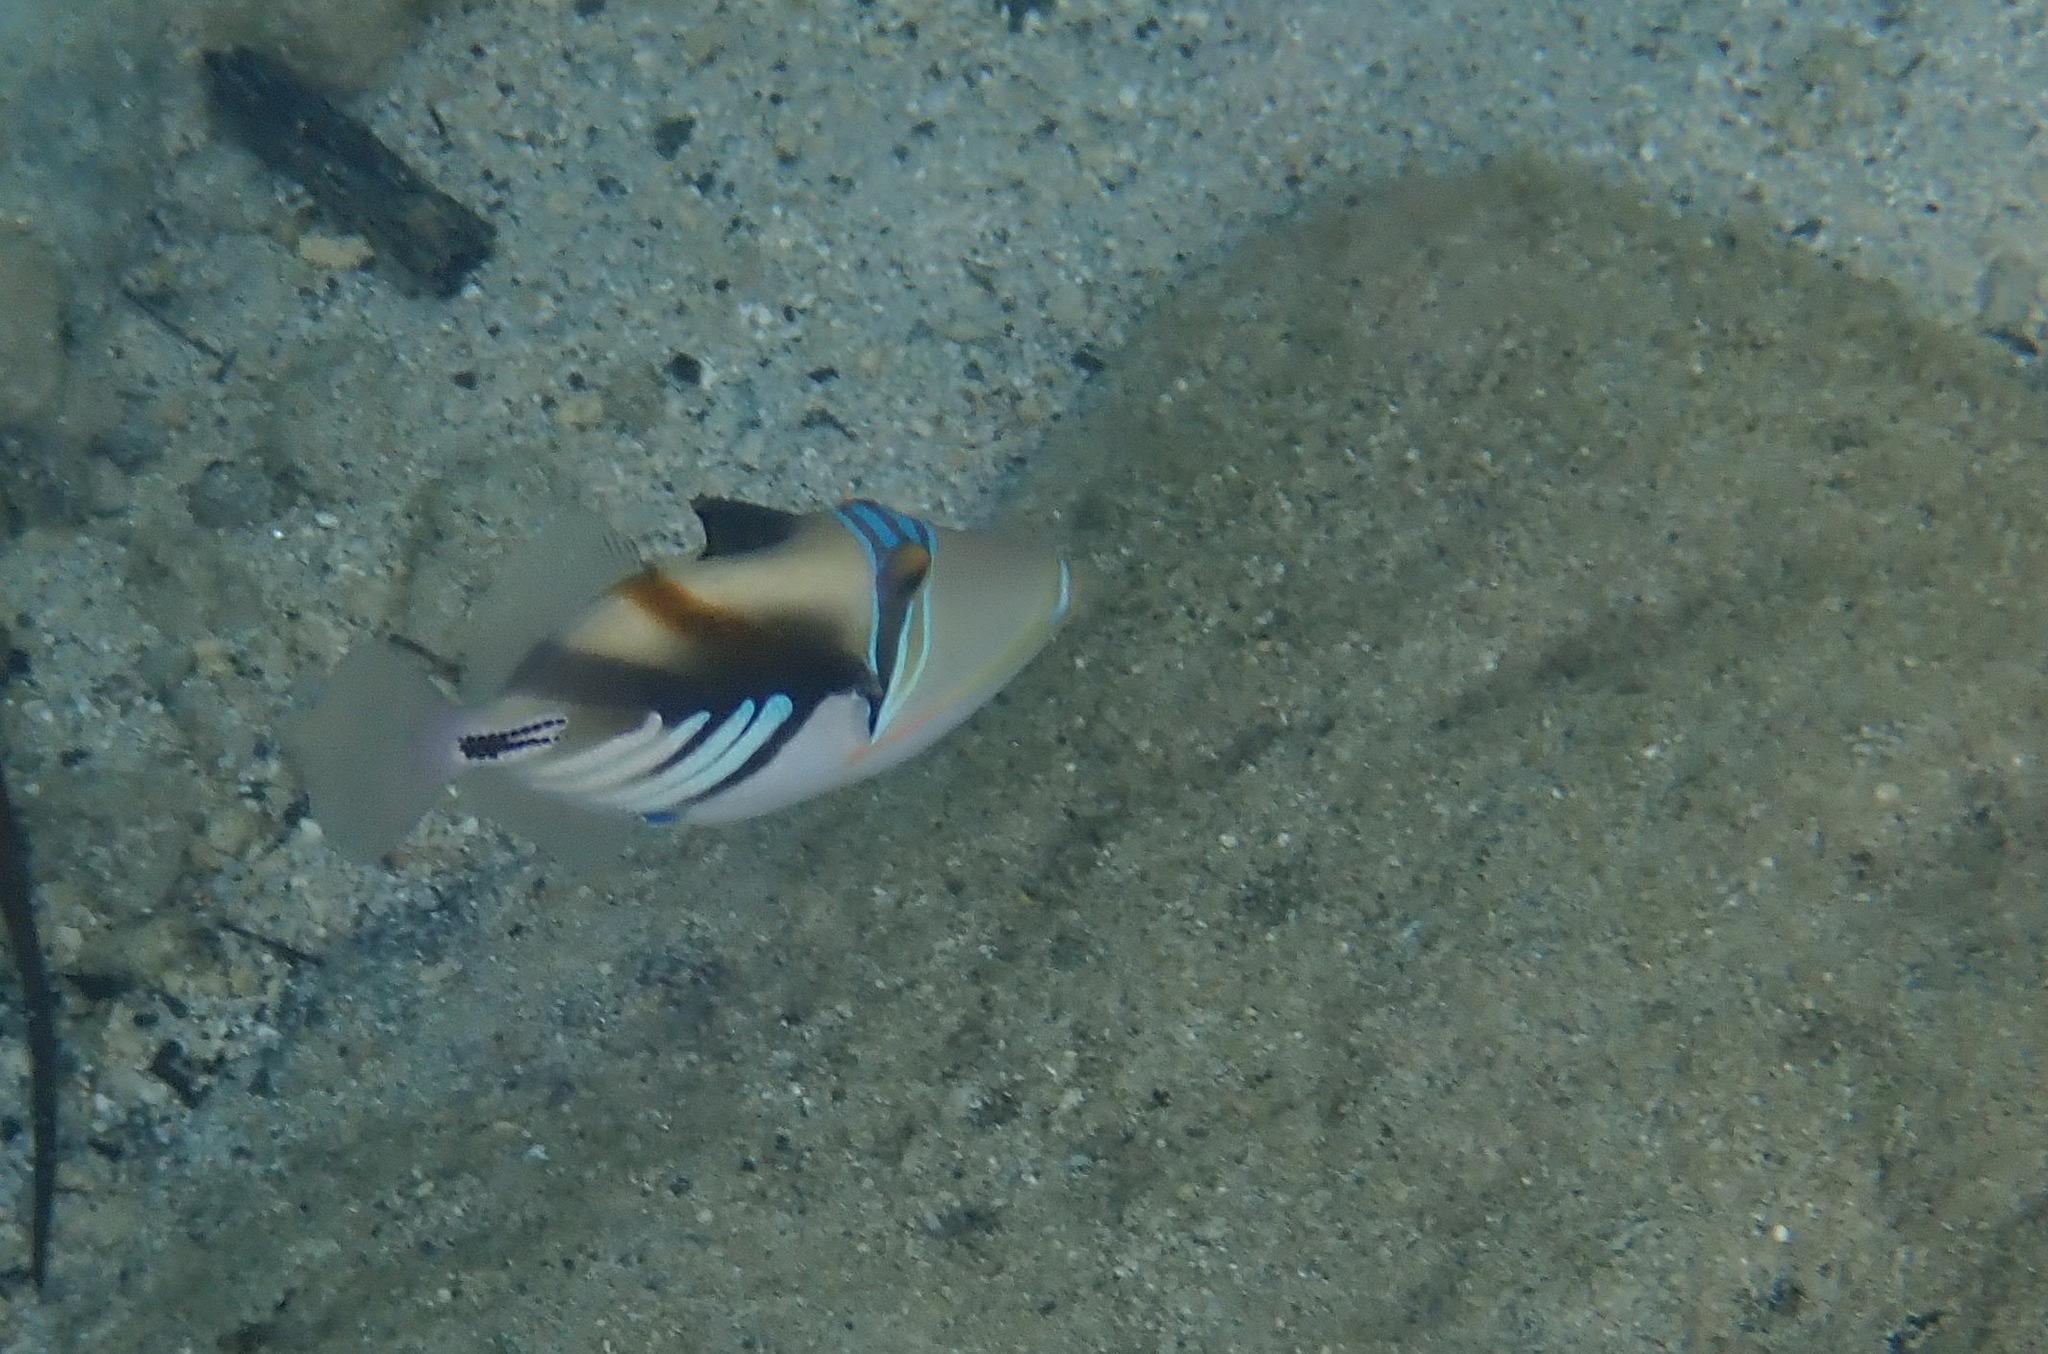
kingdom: Animalia
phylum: Chordata
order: Tetraodontiformes
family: Balistidae
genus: Rhinecanthus
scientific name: Rhinecanthus aculeatus
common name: White-banded triggerfish
